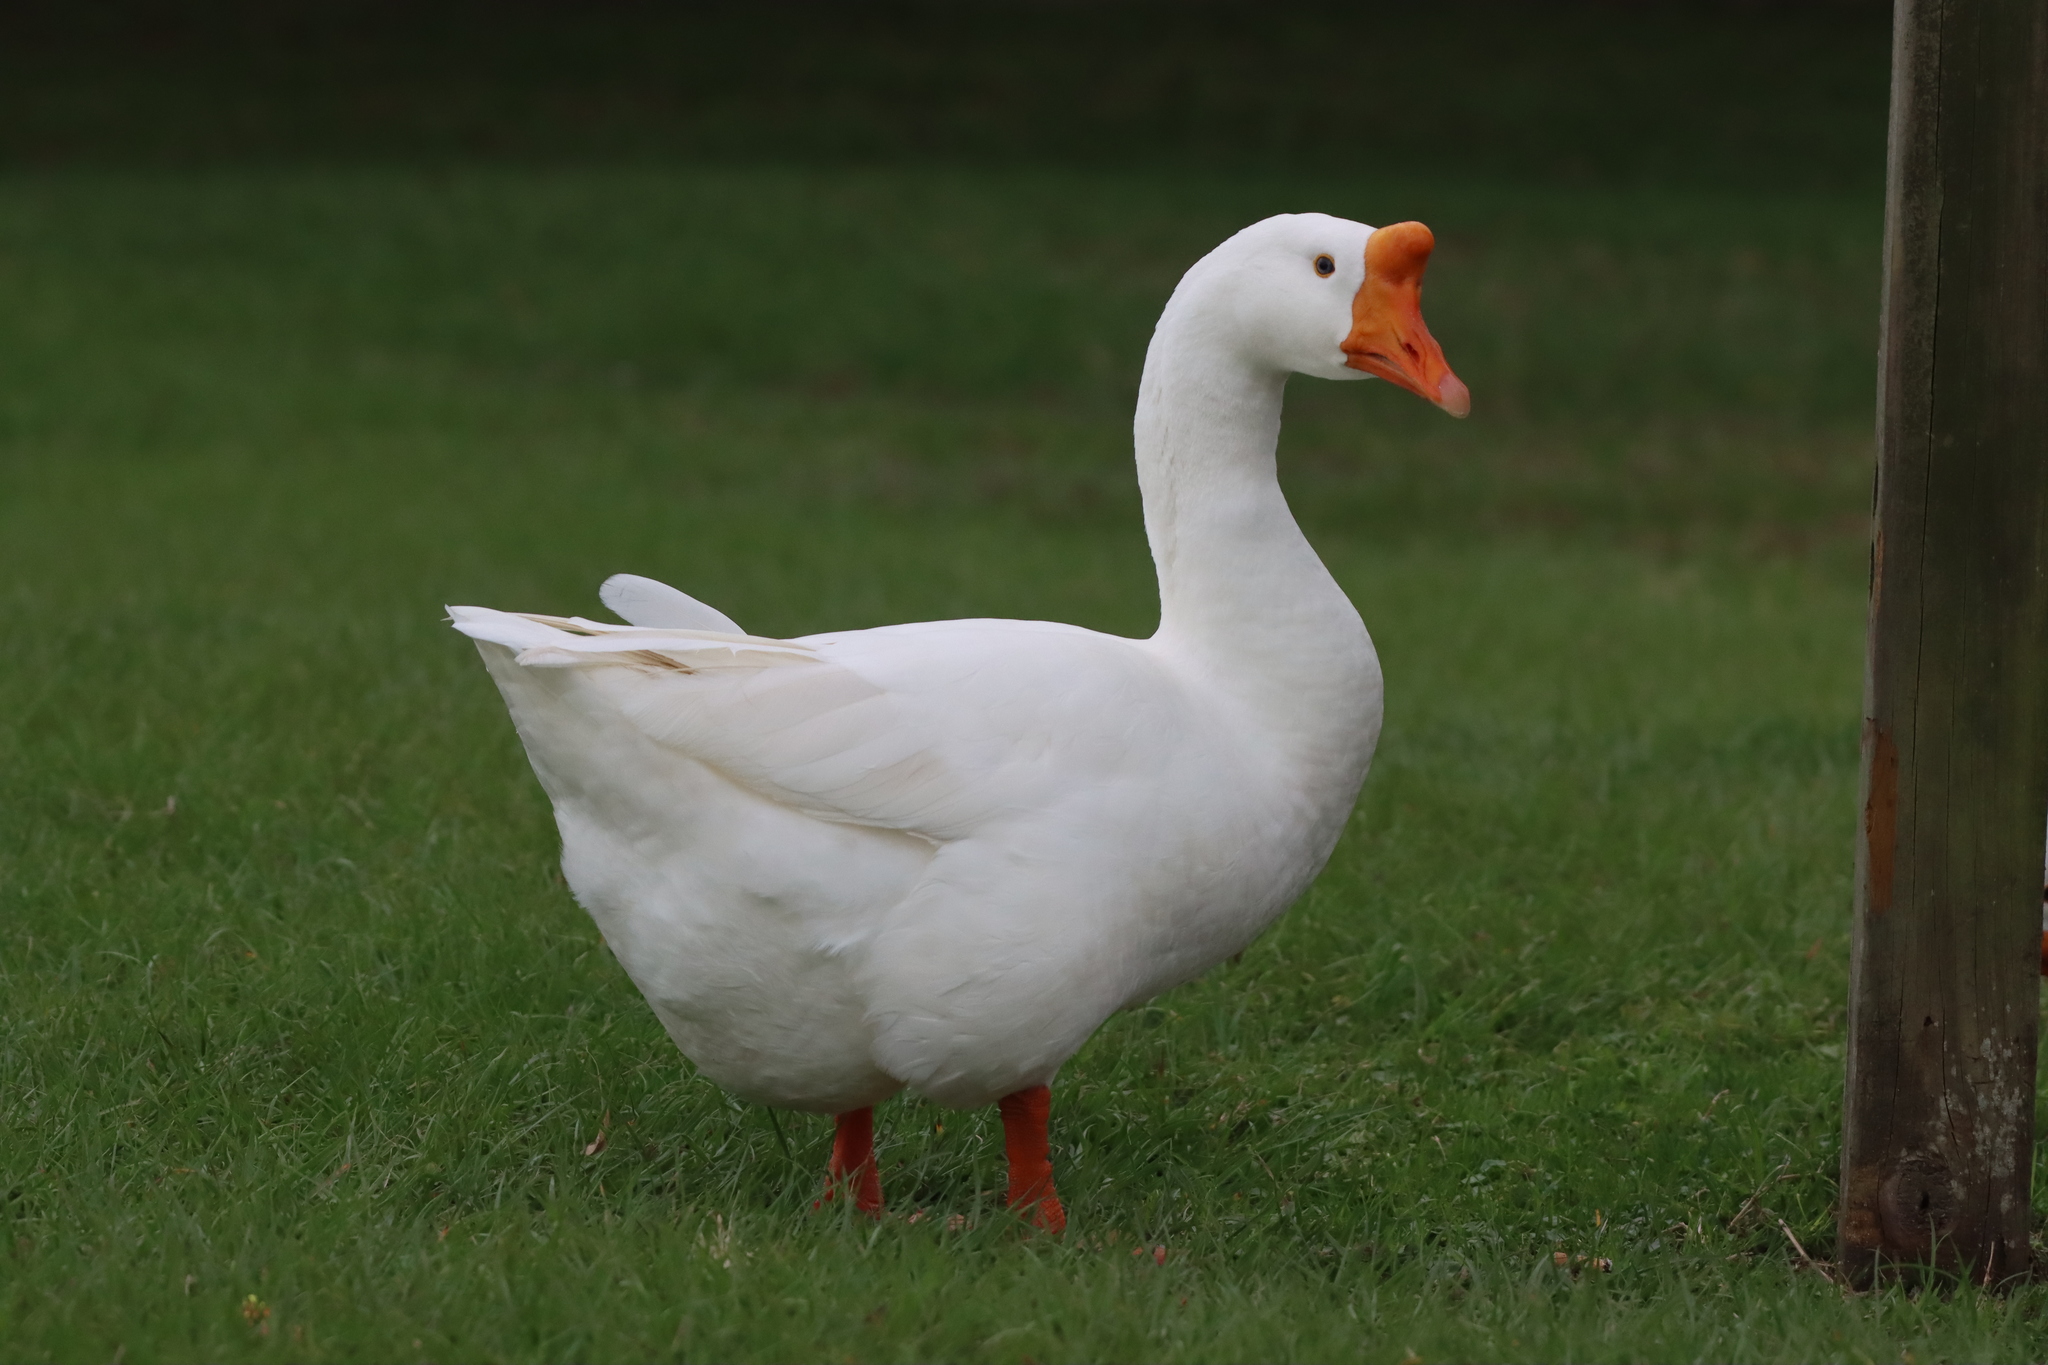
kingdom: Animalia
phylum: Chordata
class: Aves
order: Anseriformes
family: Anatidae
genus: Anser
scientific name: Anser cygnoides
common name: Swan goose
